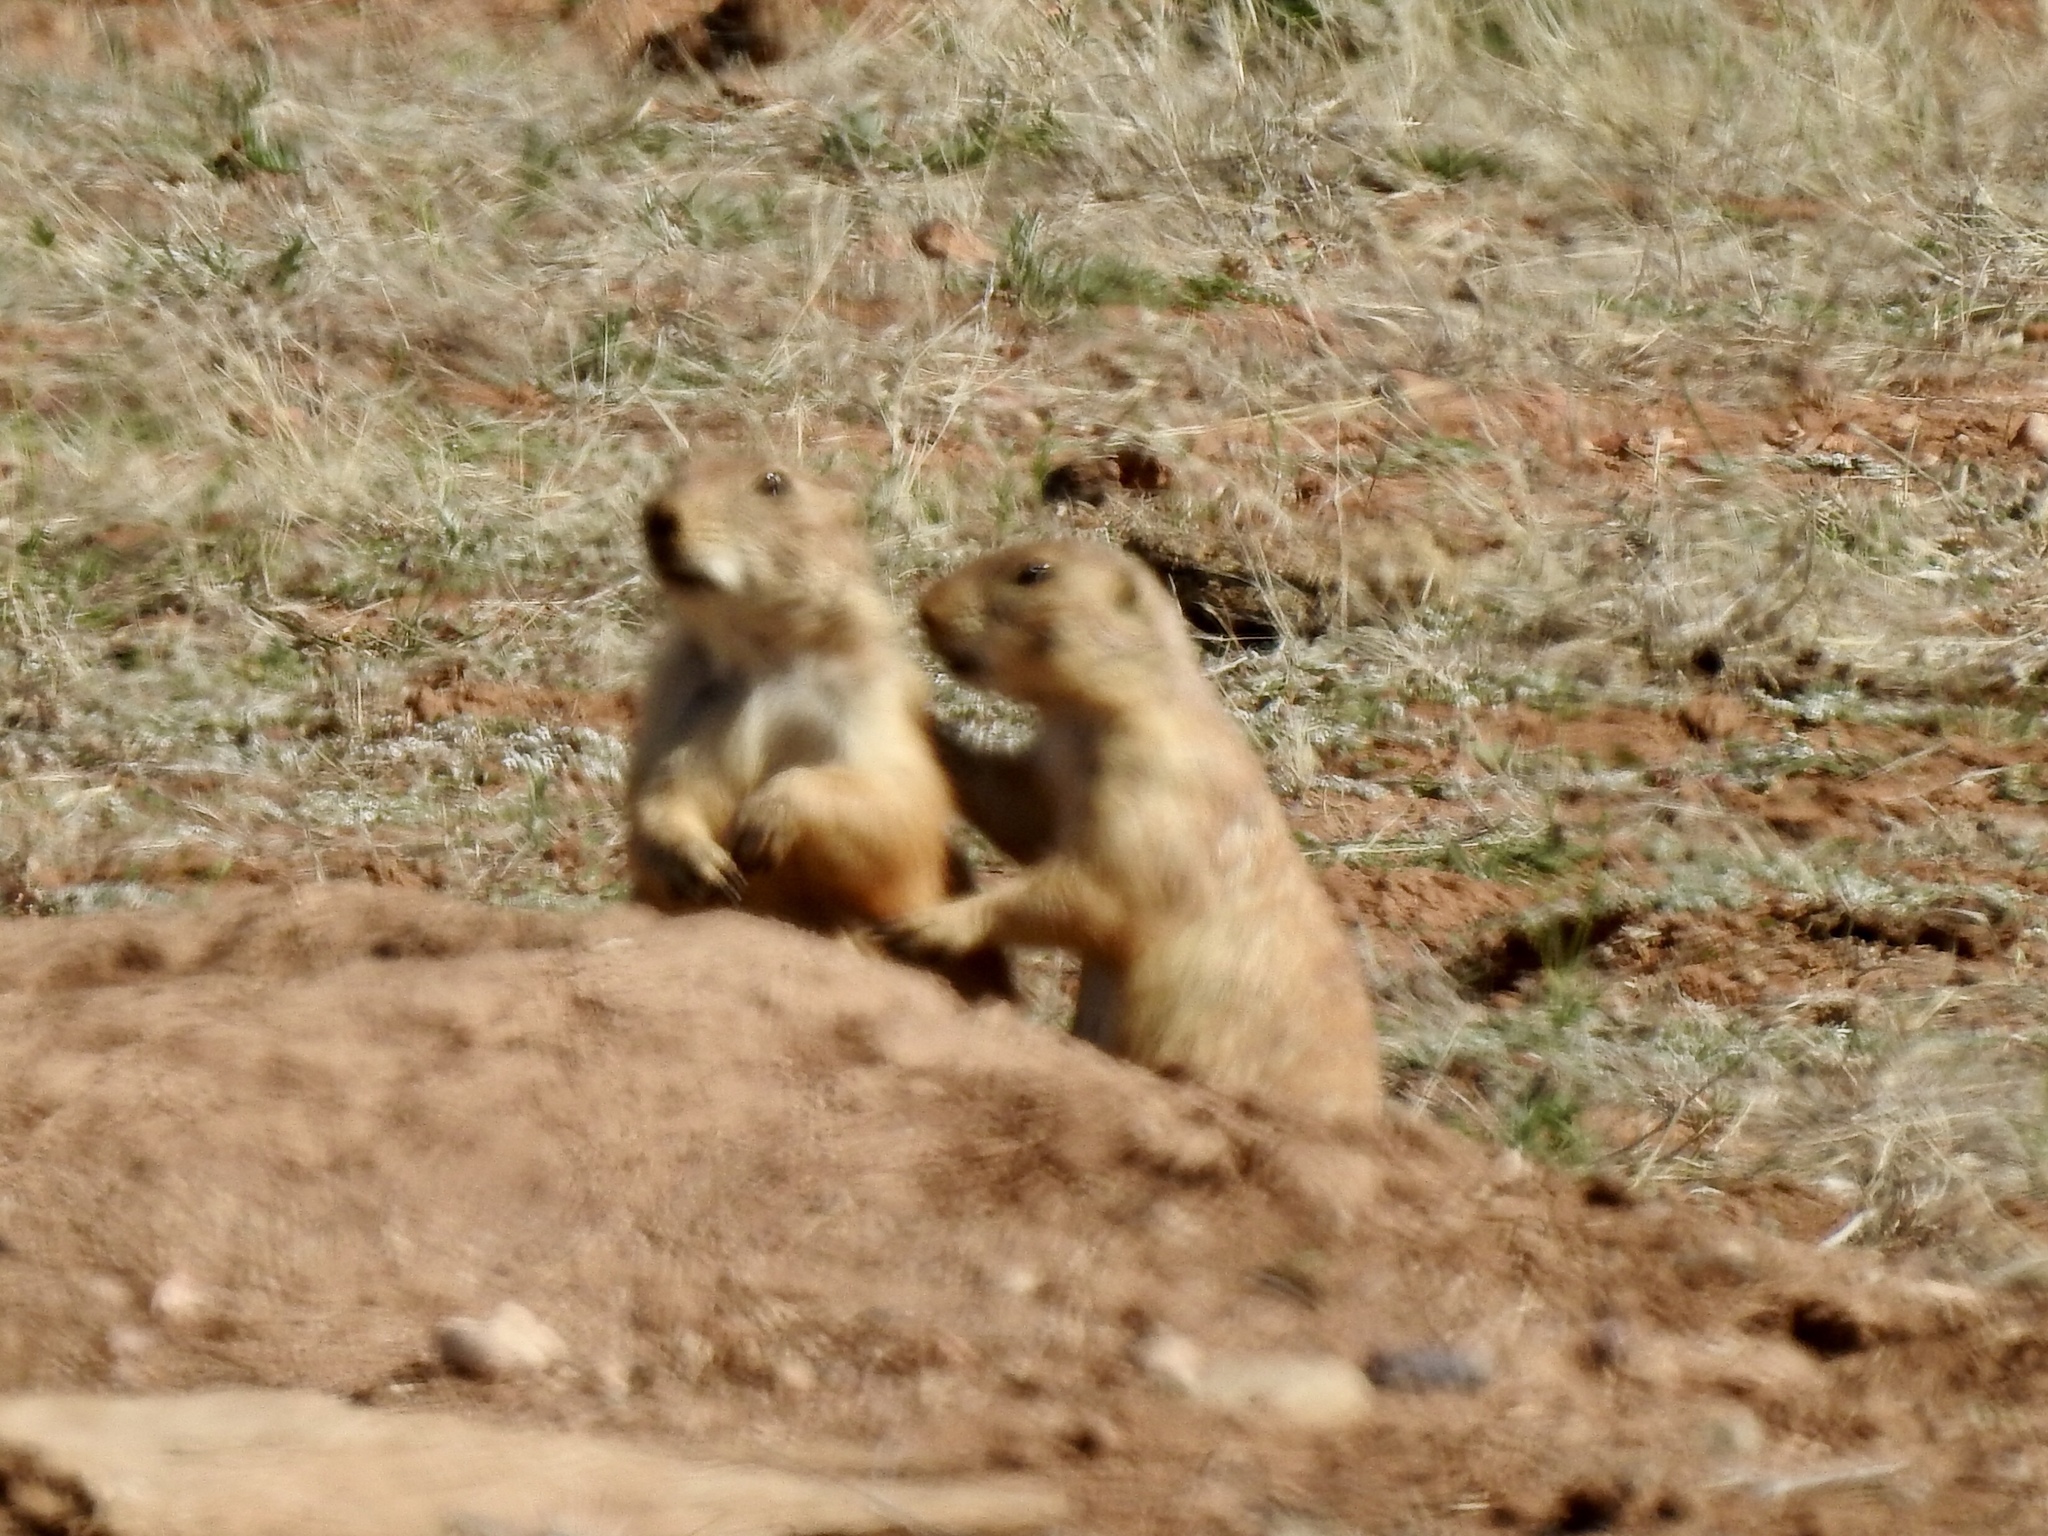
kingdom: Animalia
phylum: Chordata
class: Mammalia
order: Rodentia
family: Sciuridae
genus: Cynomys
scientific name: Cynomys ludovicianus
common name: Black-tailed prairie dog
